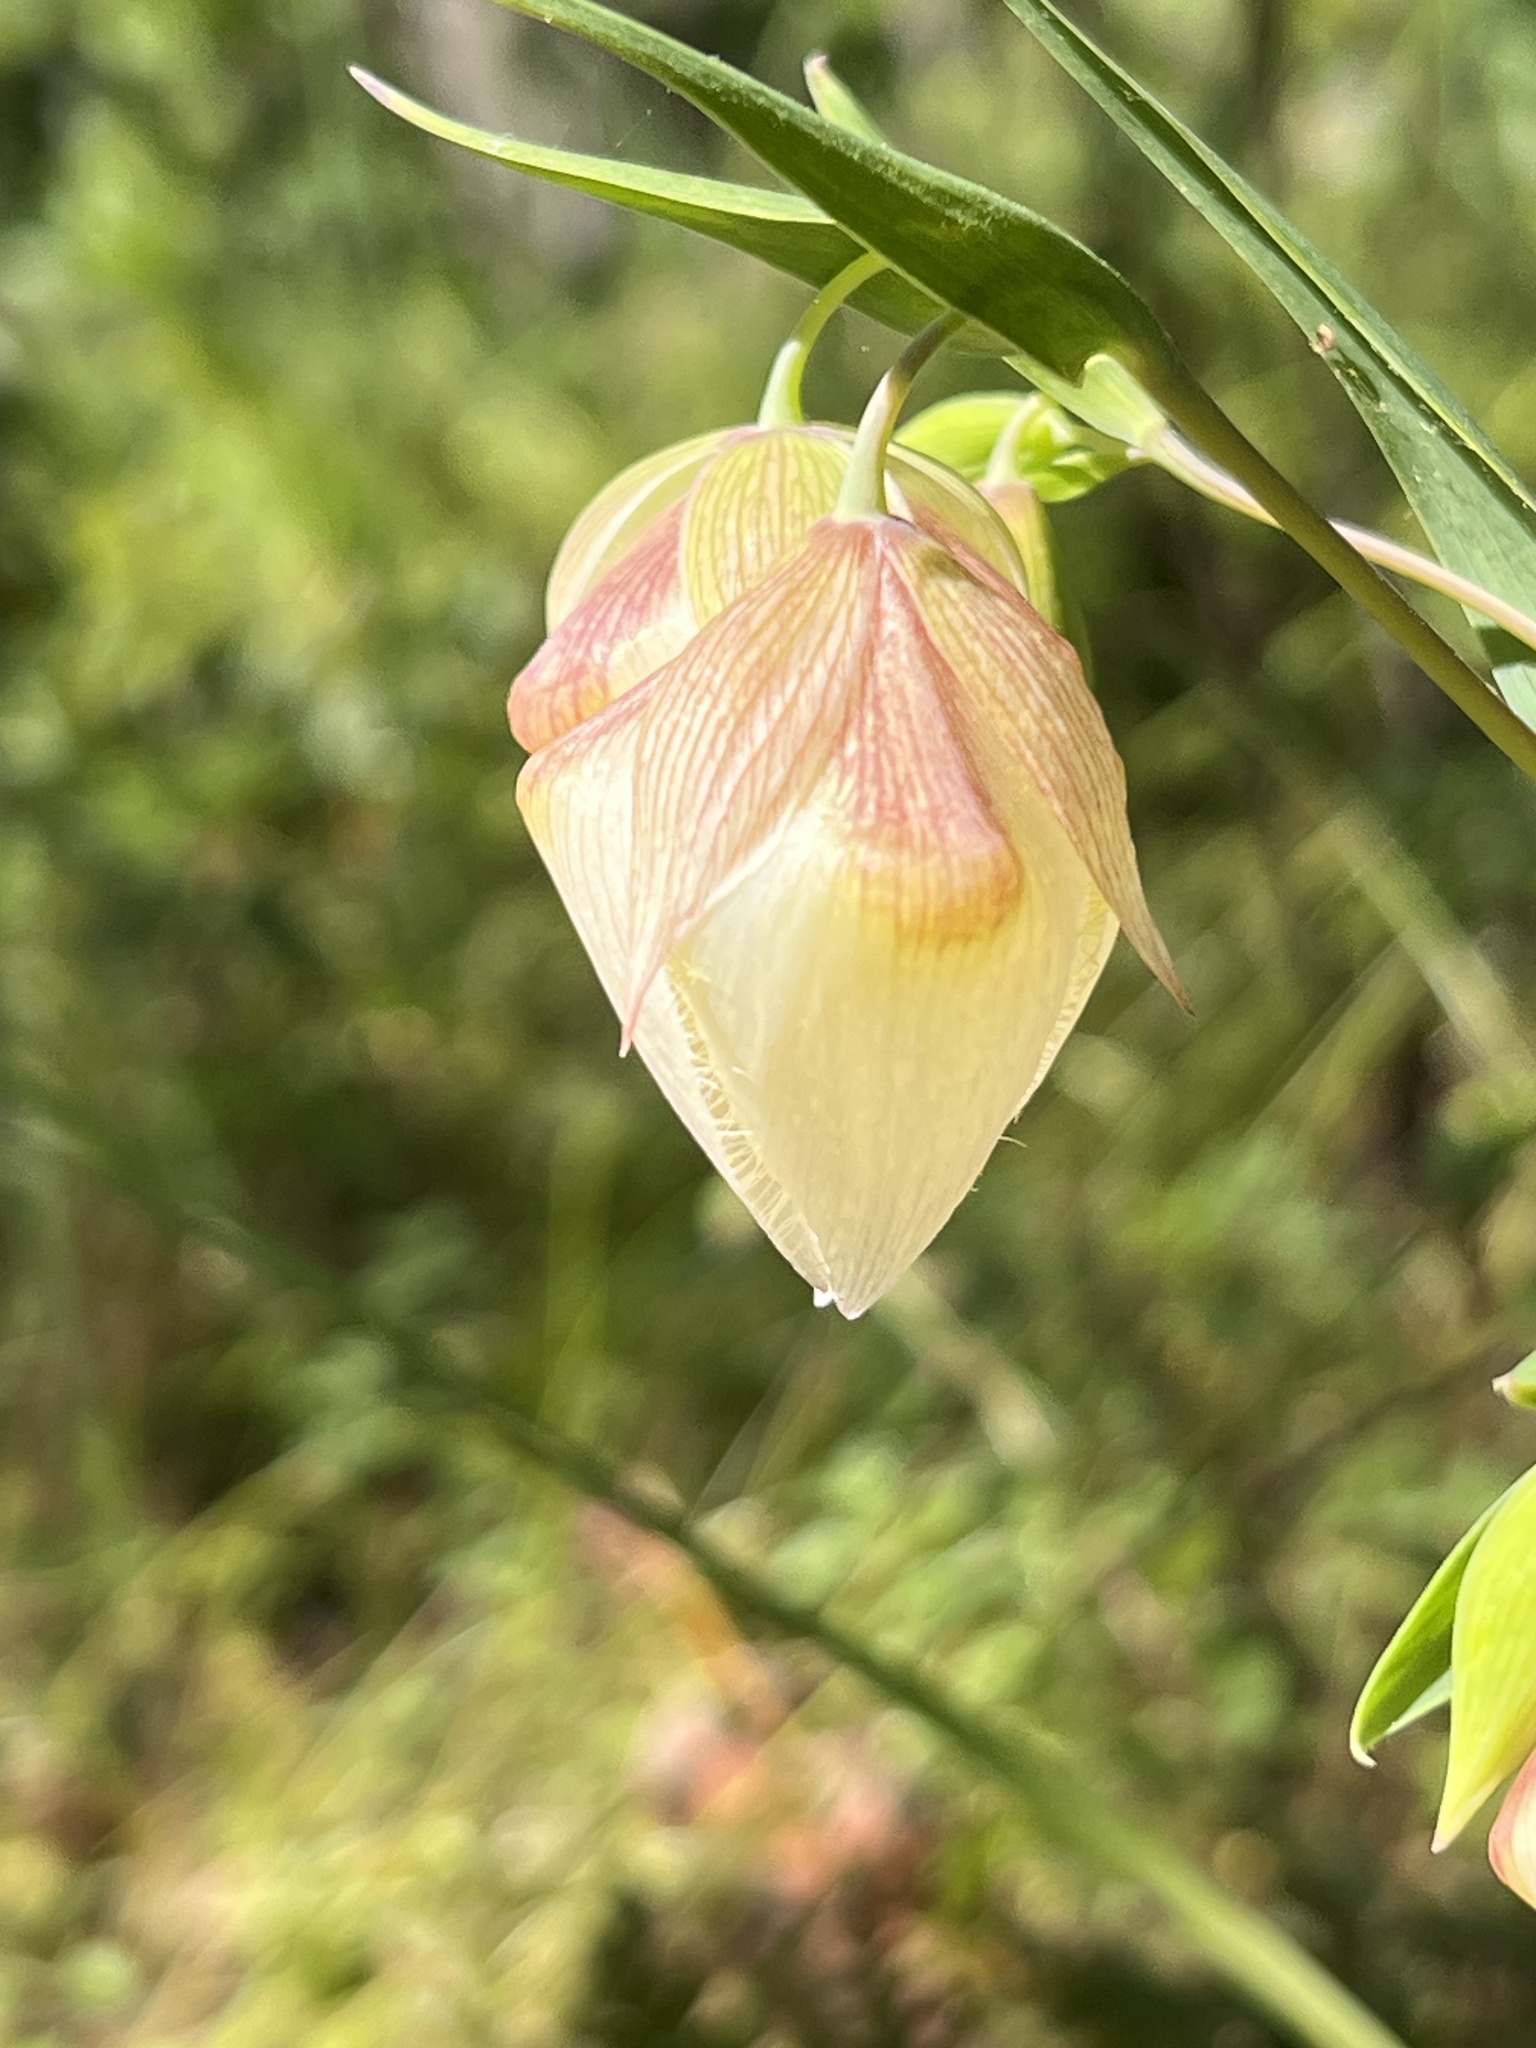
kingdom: Plantae
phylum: Tracheophyta
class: Liliopsida
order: Liliales
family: Liliaceae
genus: Calochortus
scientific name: Calochortus albus
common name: Fairy-lantern
